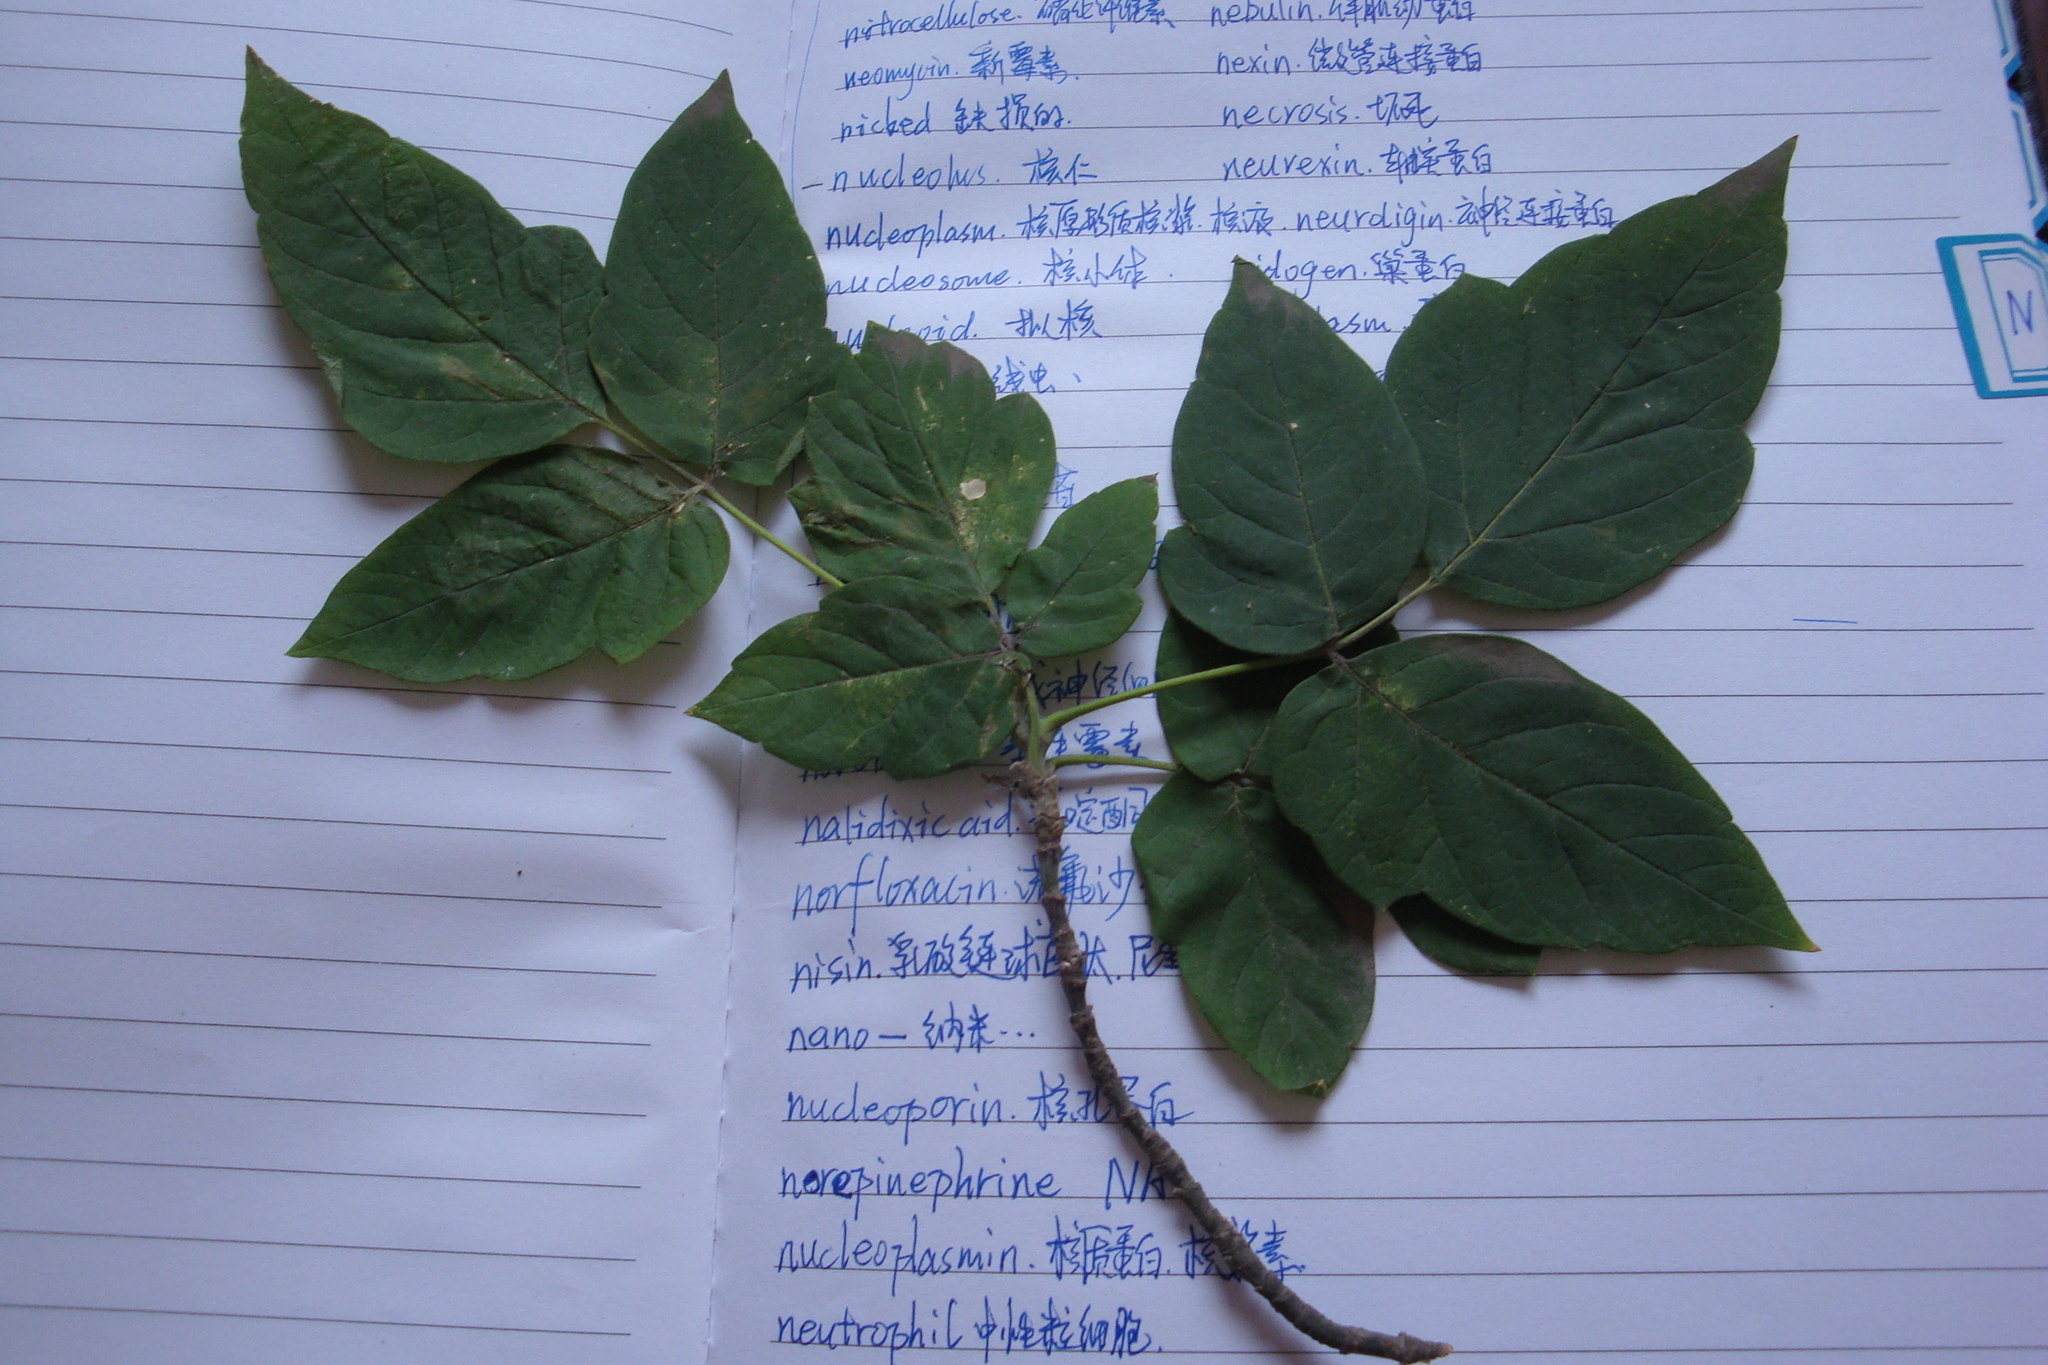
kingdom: Plantae
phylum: Tracheophyta
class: Magnoliopsida
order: Sapindales
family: Sapindaceae
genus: Acer
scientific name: Acer negundo
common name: Ashleaf maple
